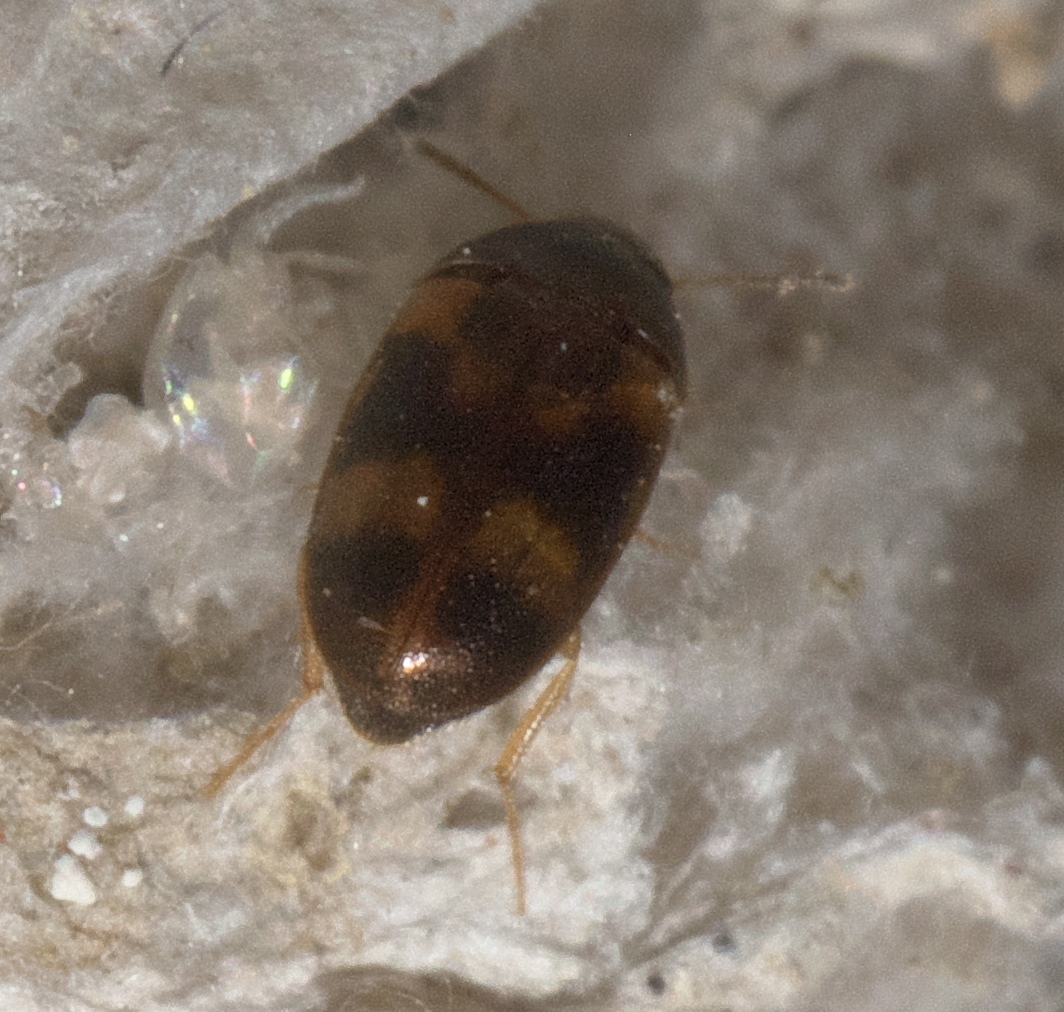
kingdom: Animalia
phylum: Arthropoda
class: Insecta
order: Coleoptera
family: Mycetophagidae
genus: Litargus
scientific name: Litargus balteatus
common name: Stored grain hairy fungus beetle
